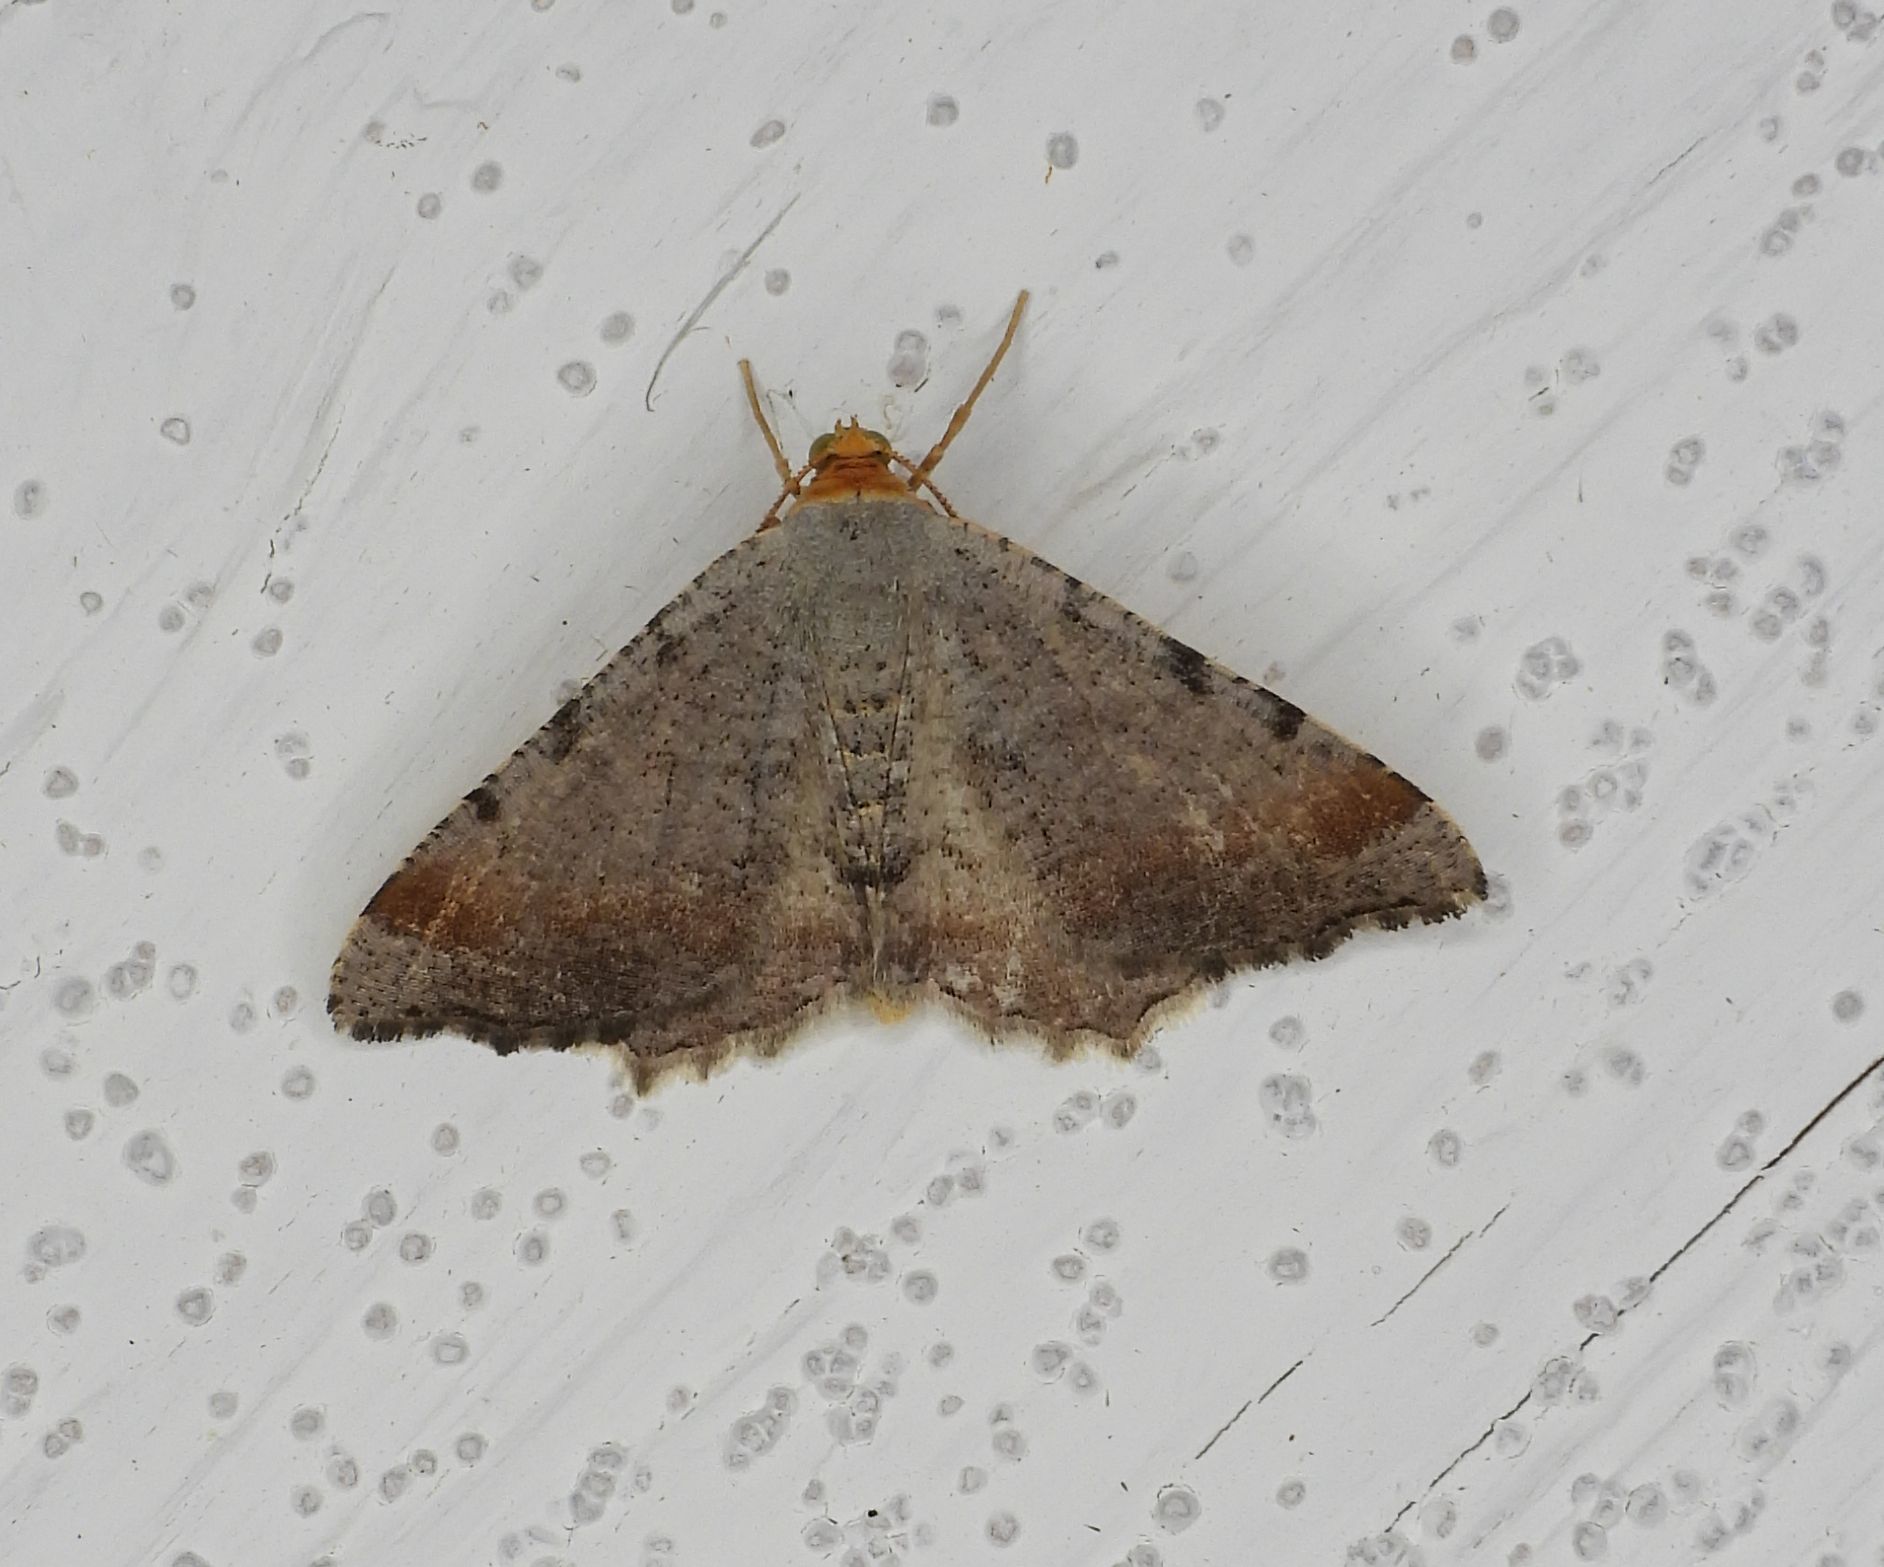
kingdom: Animalia
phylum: Arthropoda
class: Insecta
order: Lepidoptera
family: Geometridae
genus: Macaria
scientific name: Macaria minorata
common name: Minor angle moth
